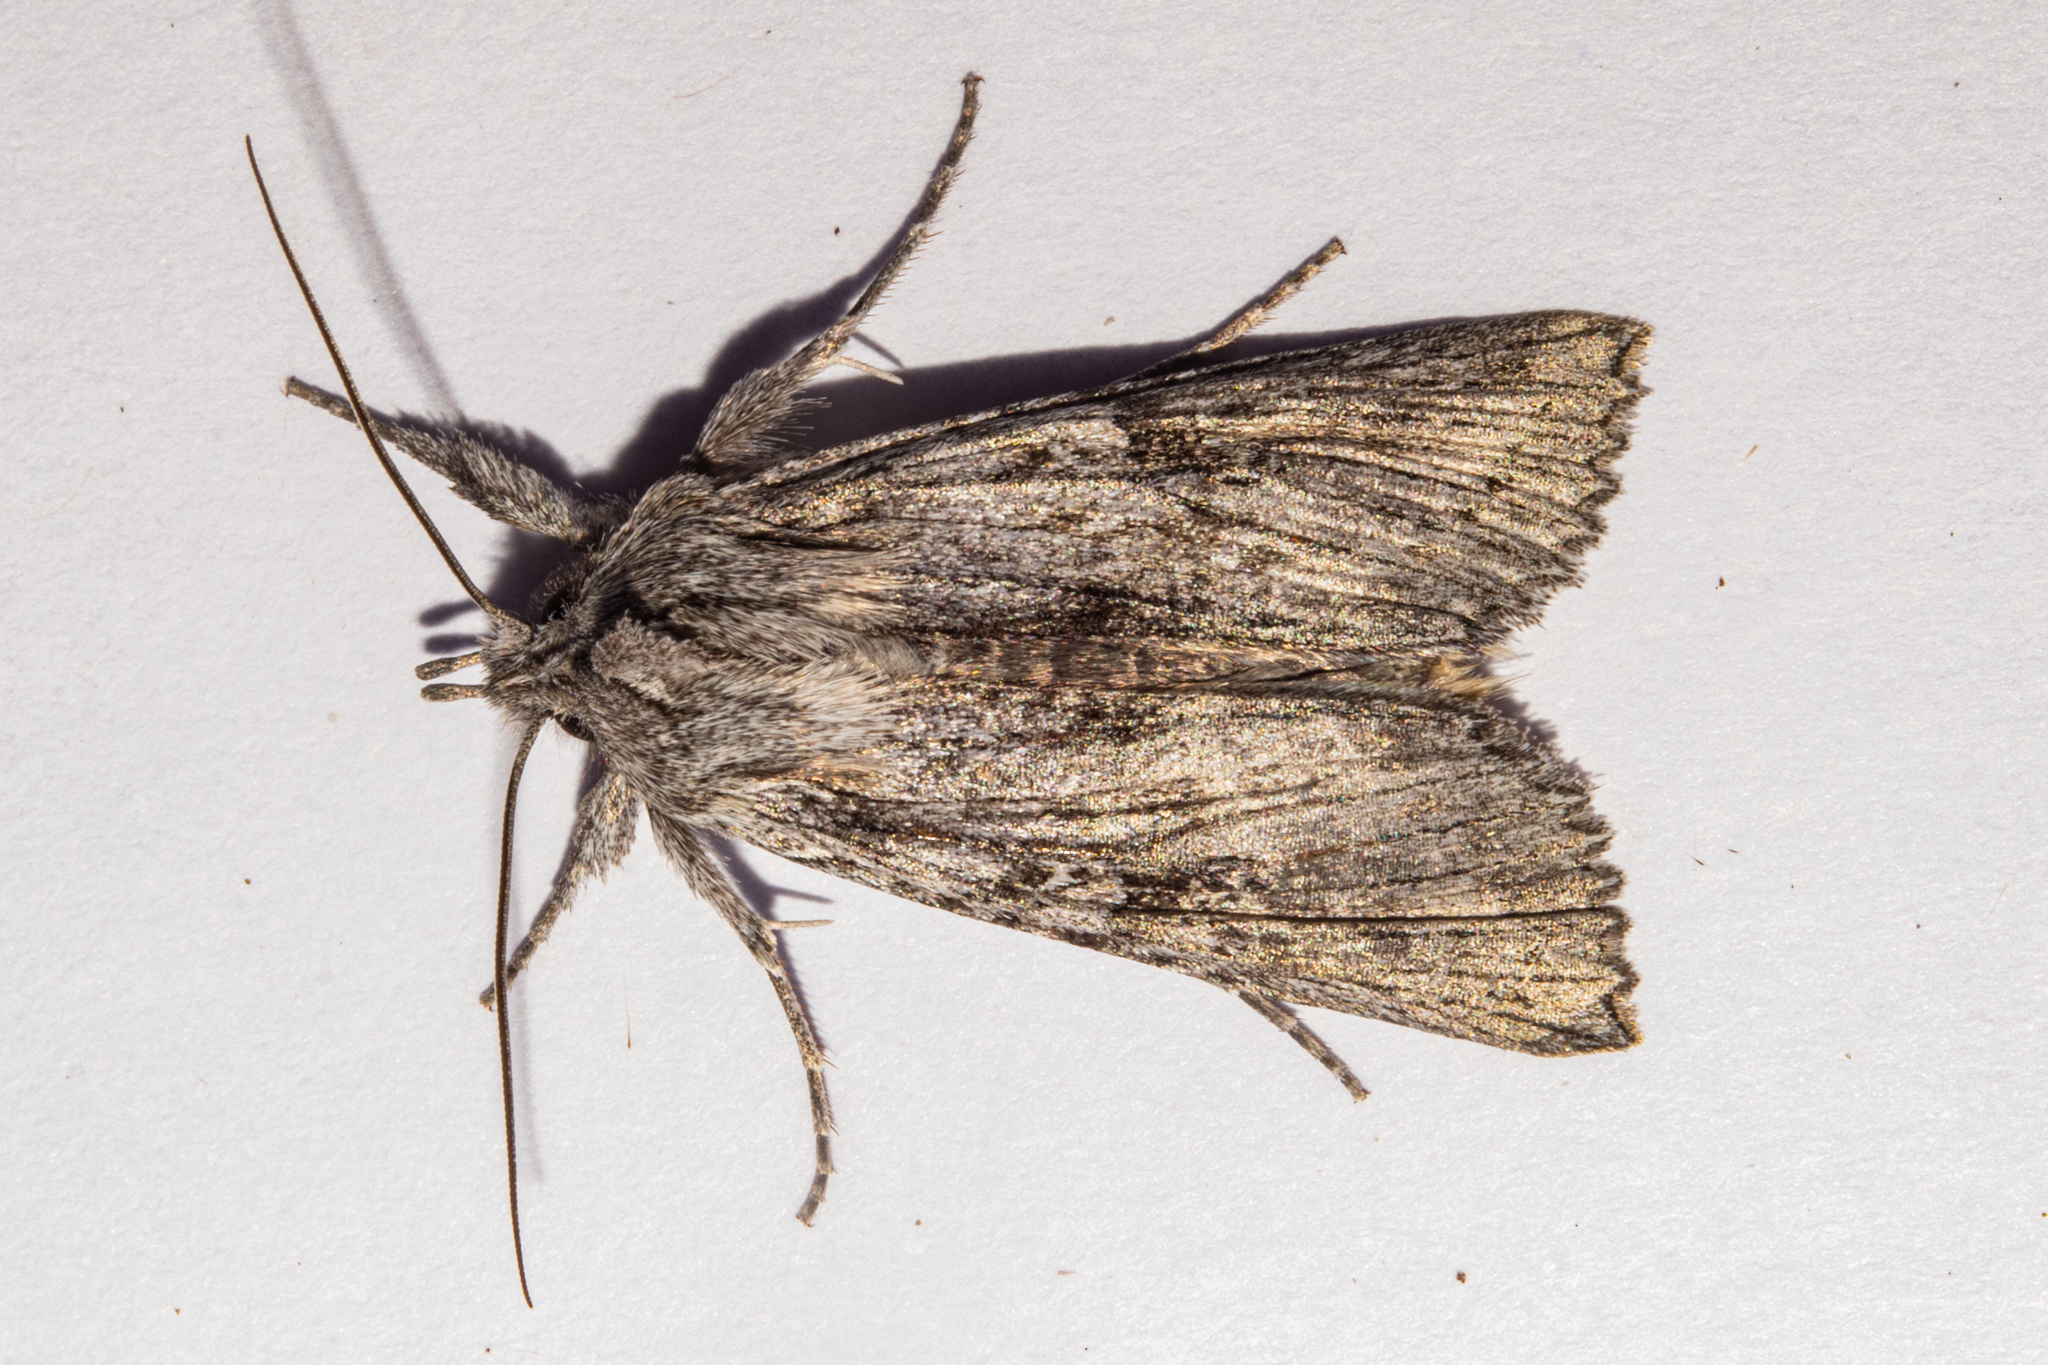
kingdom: Animalia
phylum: Arthropoda
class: Insecta
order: Lepidoptera
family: Noctuidae
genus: Physetica
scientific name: Physetica phricias
